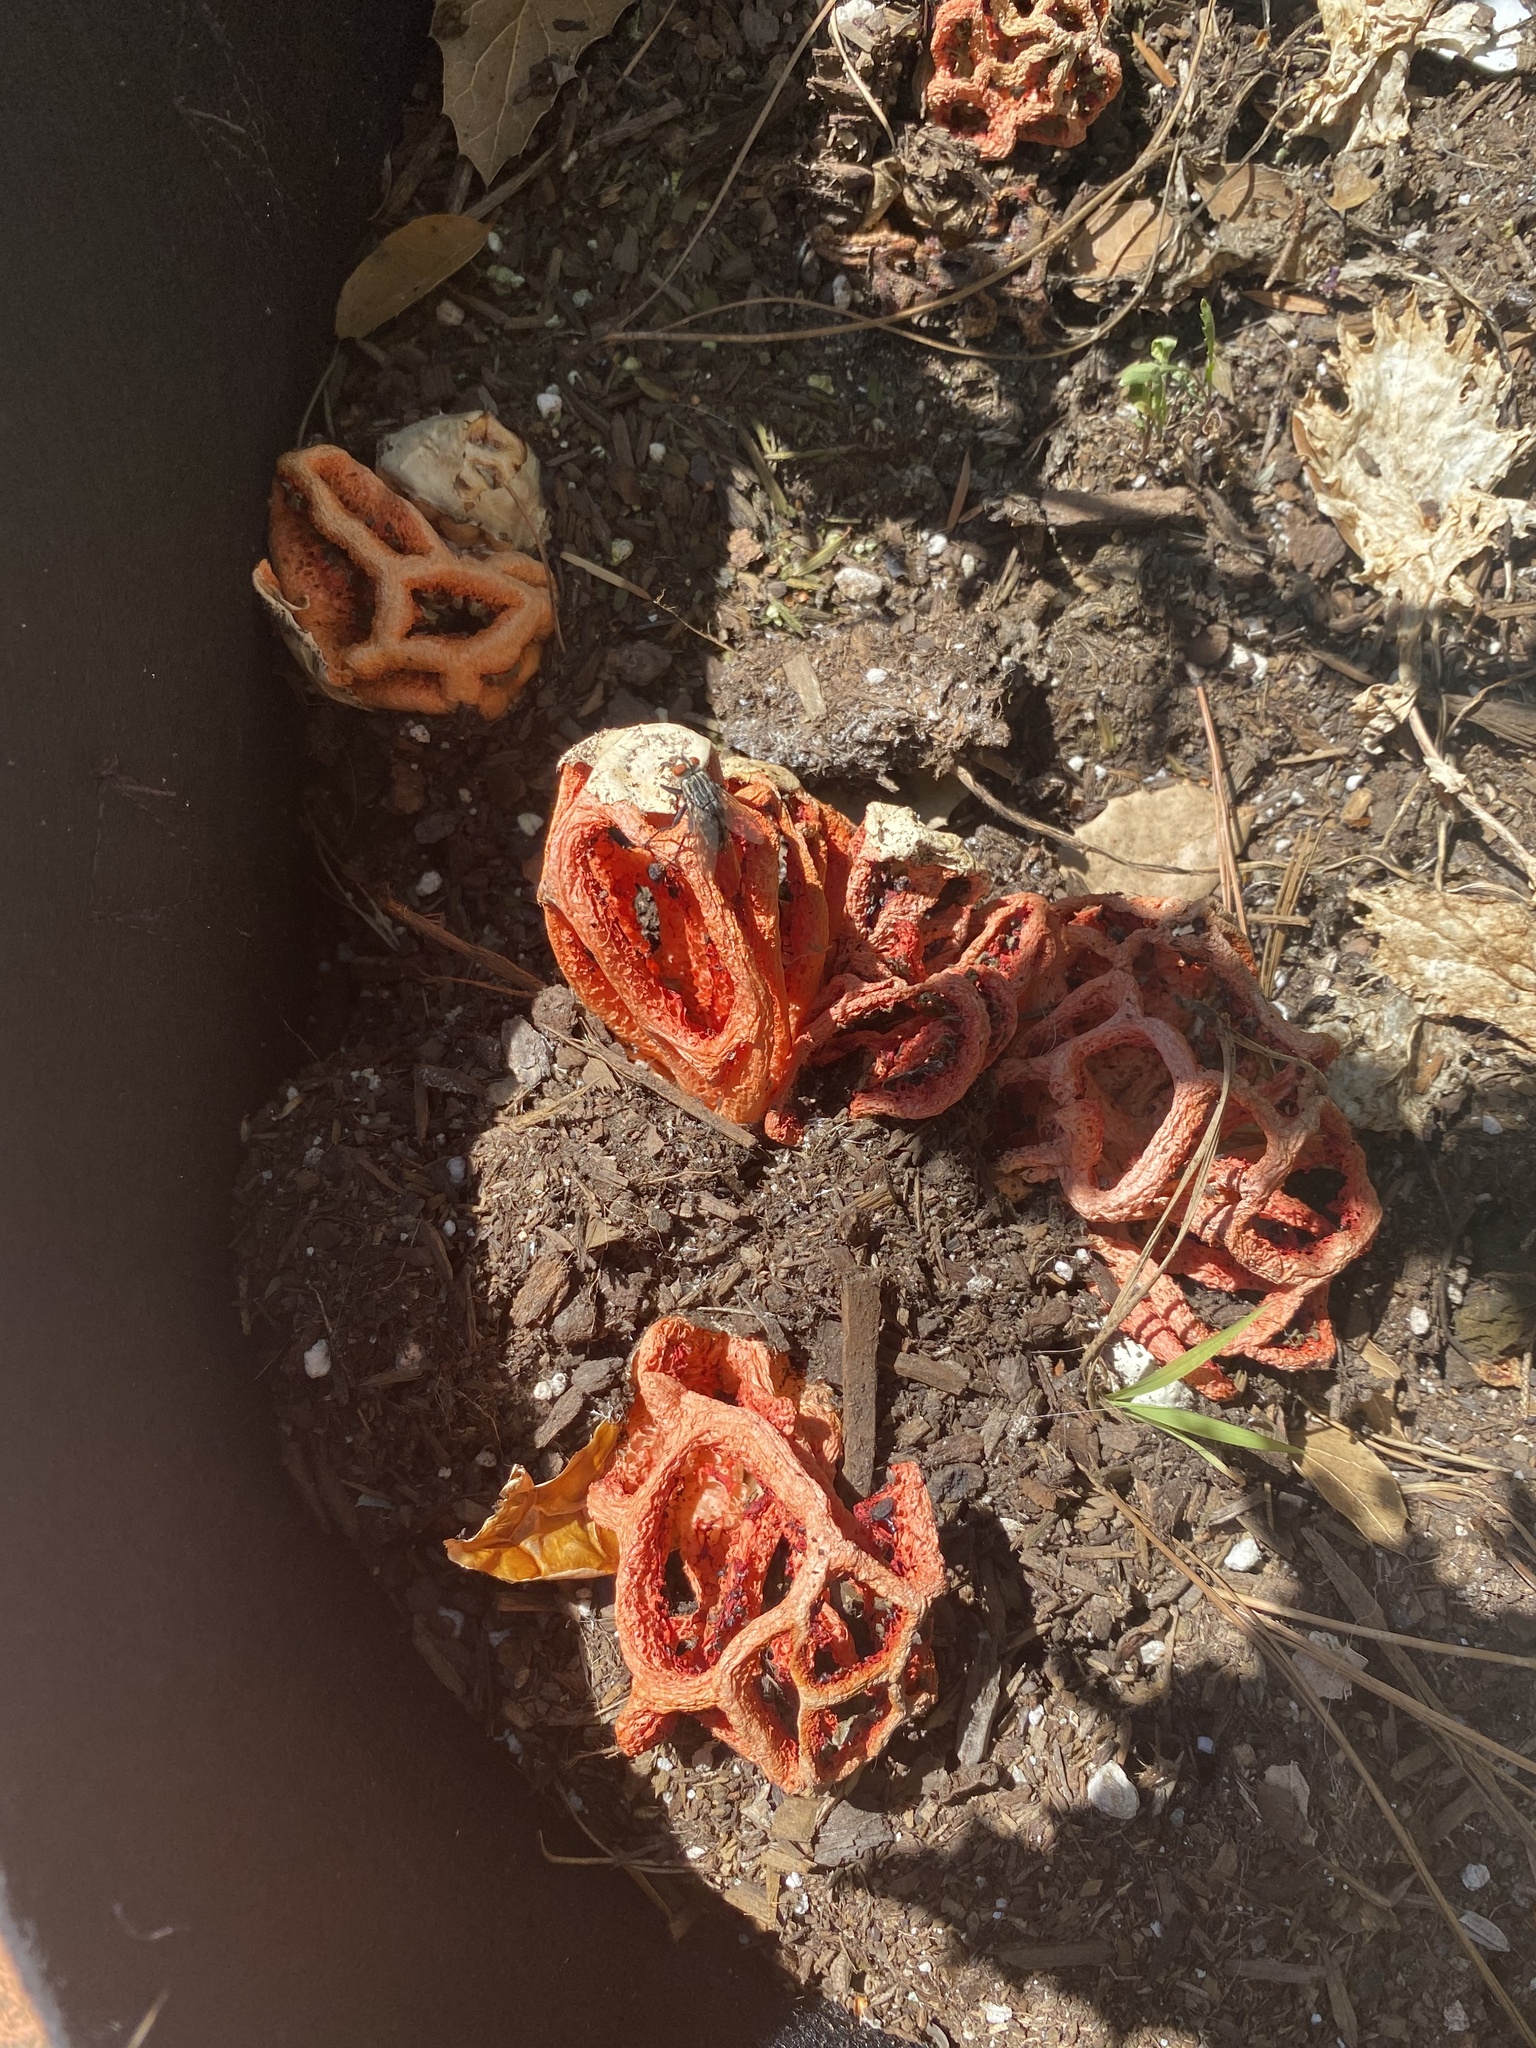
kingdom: Fungi
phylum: Basidiomycota
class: Agaricomycetes
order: Phallales
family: Phallaceae
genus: Clathrus
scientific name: Clathrus ruber
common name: Red cage
